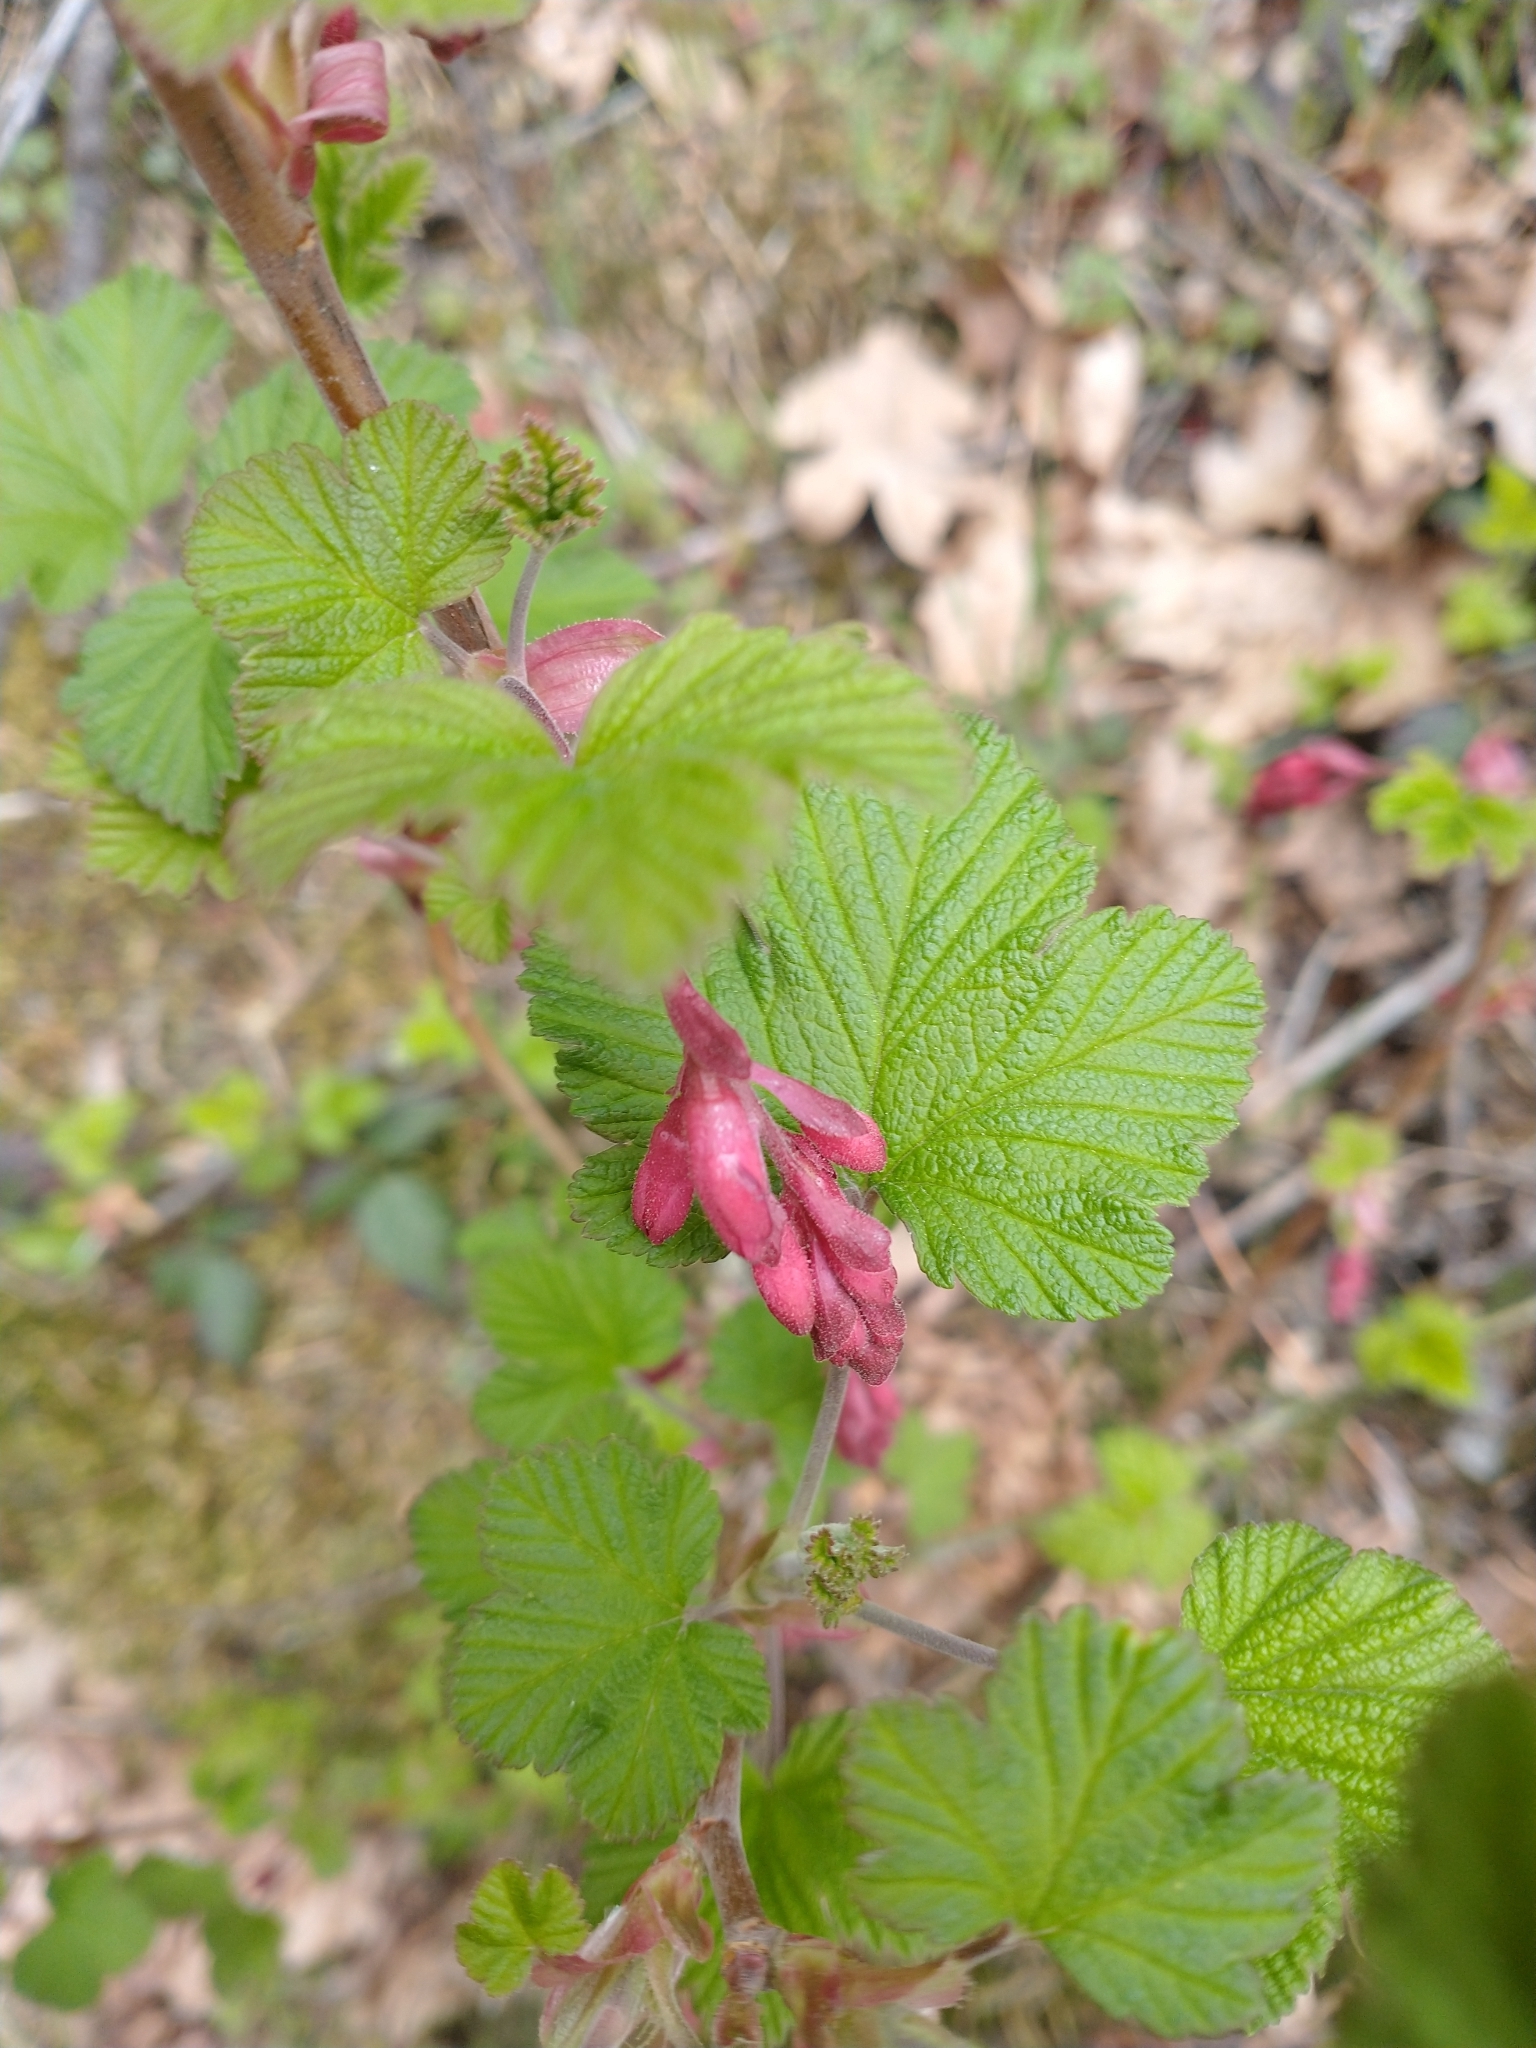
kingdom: Plantae
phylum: Tracheophyta
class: Magnoliopsida
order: Saxifragales
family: Grossulariaceae
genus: Ribes
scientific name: Ribes sanguineum
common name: Flowering currant
